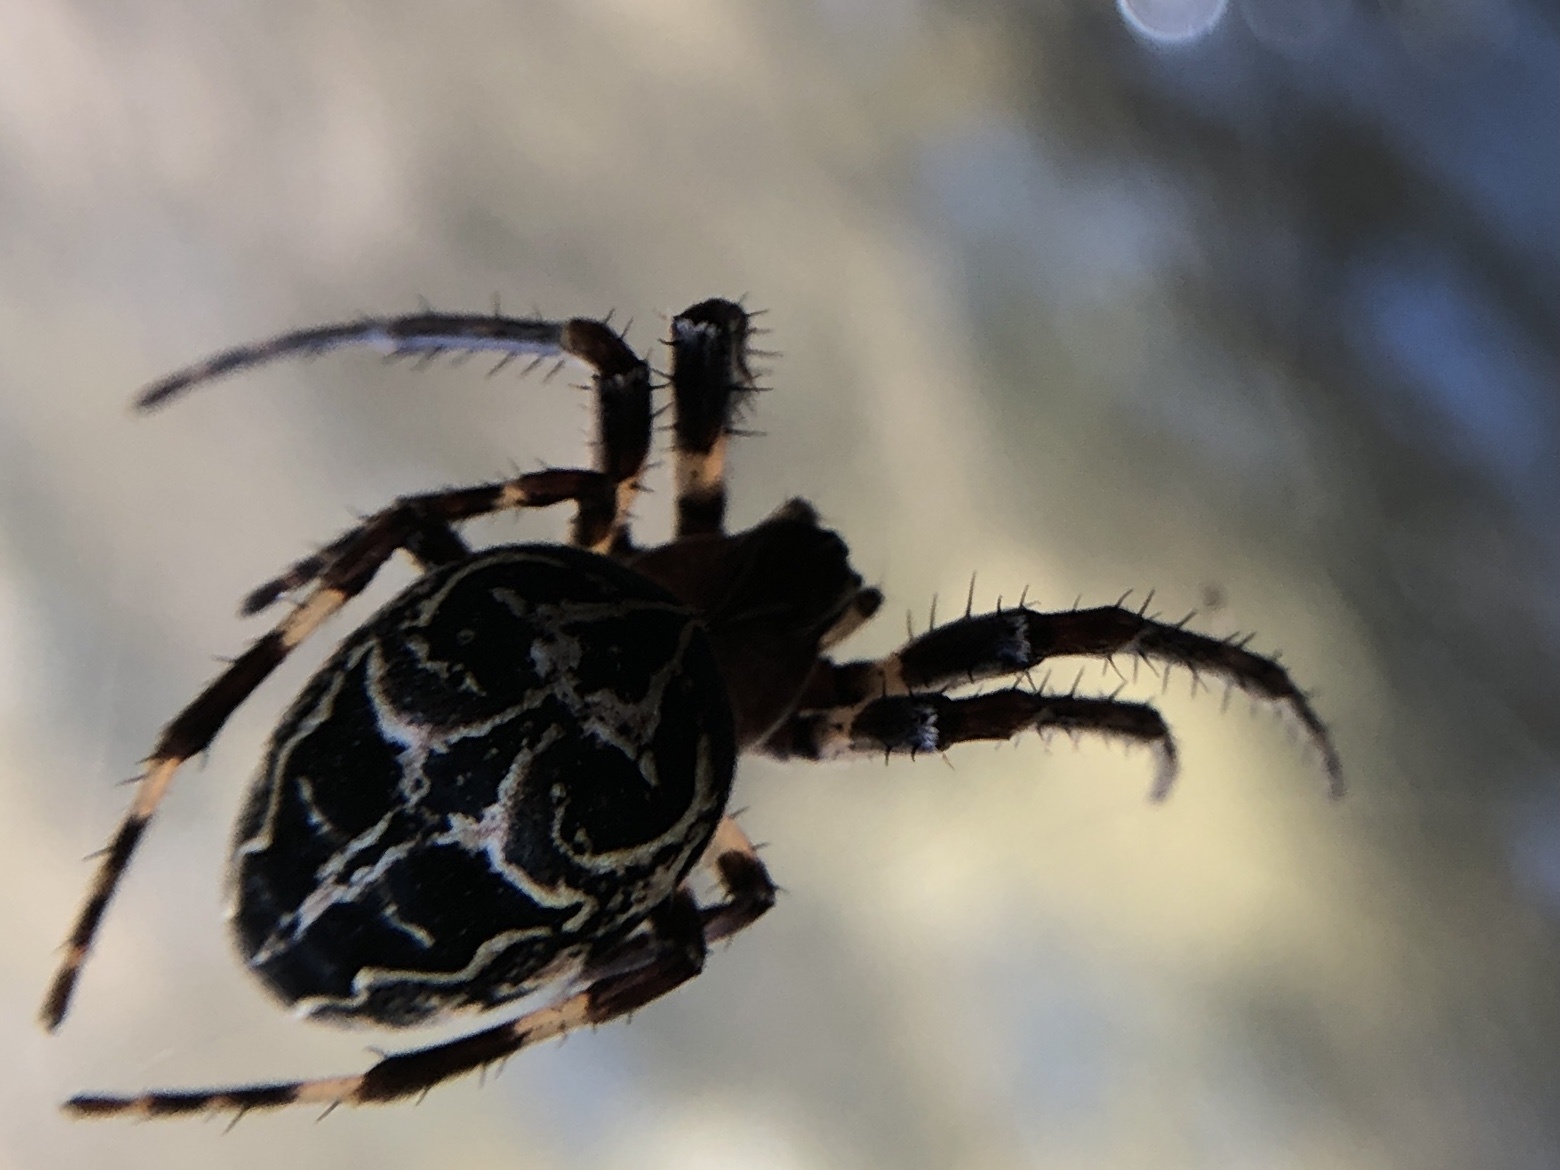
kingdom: Animalia
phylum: Arthropoda
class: Arachnida
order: Araneae
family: Araneidae
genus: Larinioides
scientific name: Larinioides sclopetarius
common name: Bridge orbweaver
